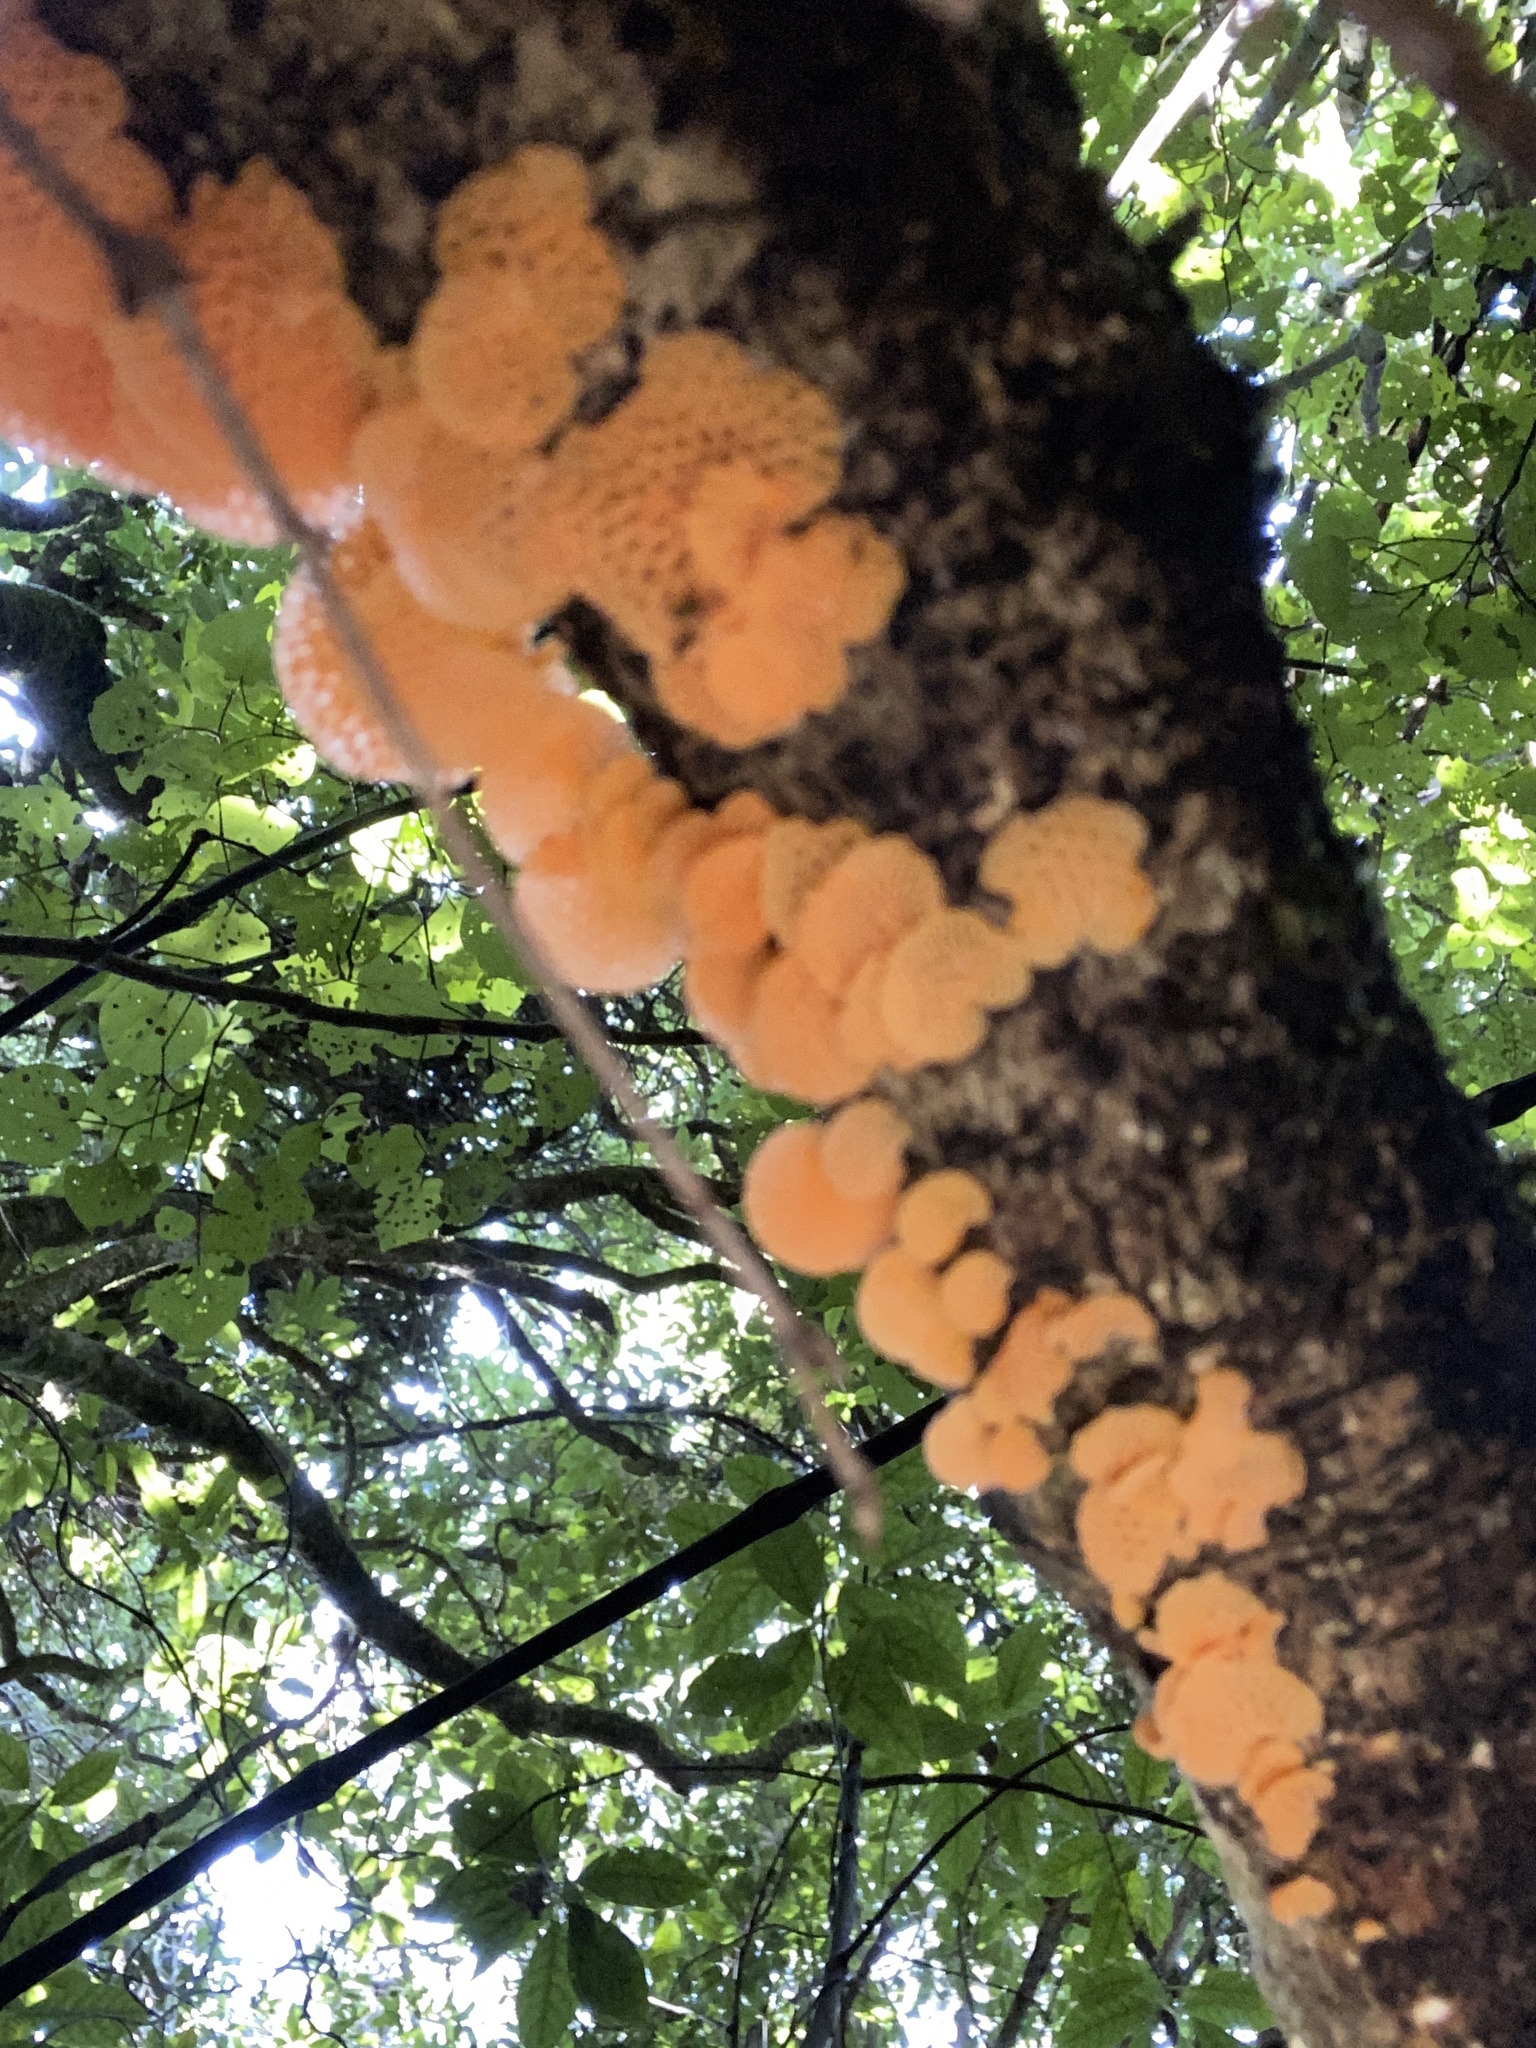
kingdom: Fungi
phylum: Basidiomycota
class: Agaricomycetes
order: Agaricales
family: Mycenaceae
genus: Favolaschia
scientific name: Favolaschia claudopus
